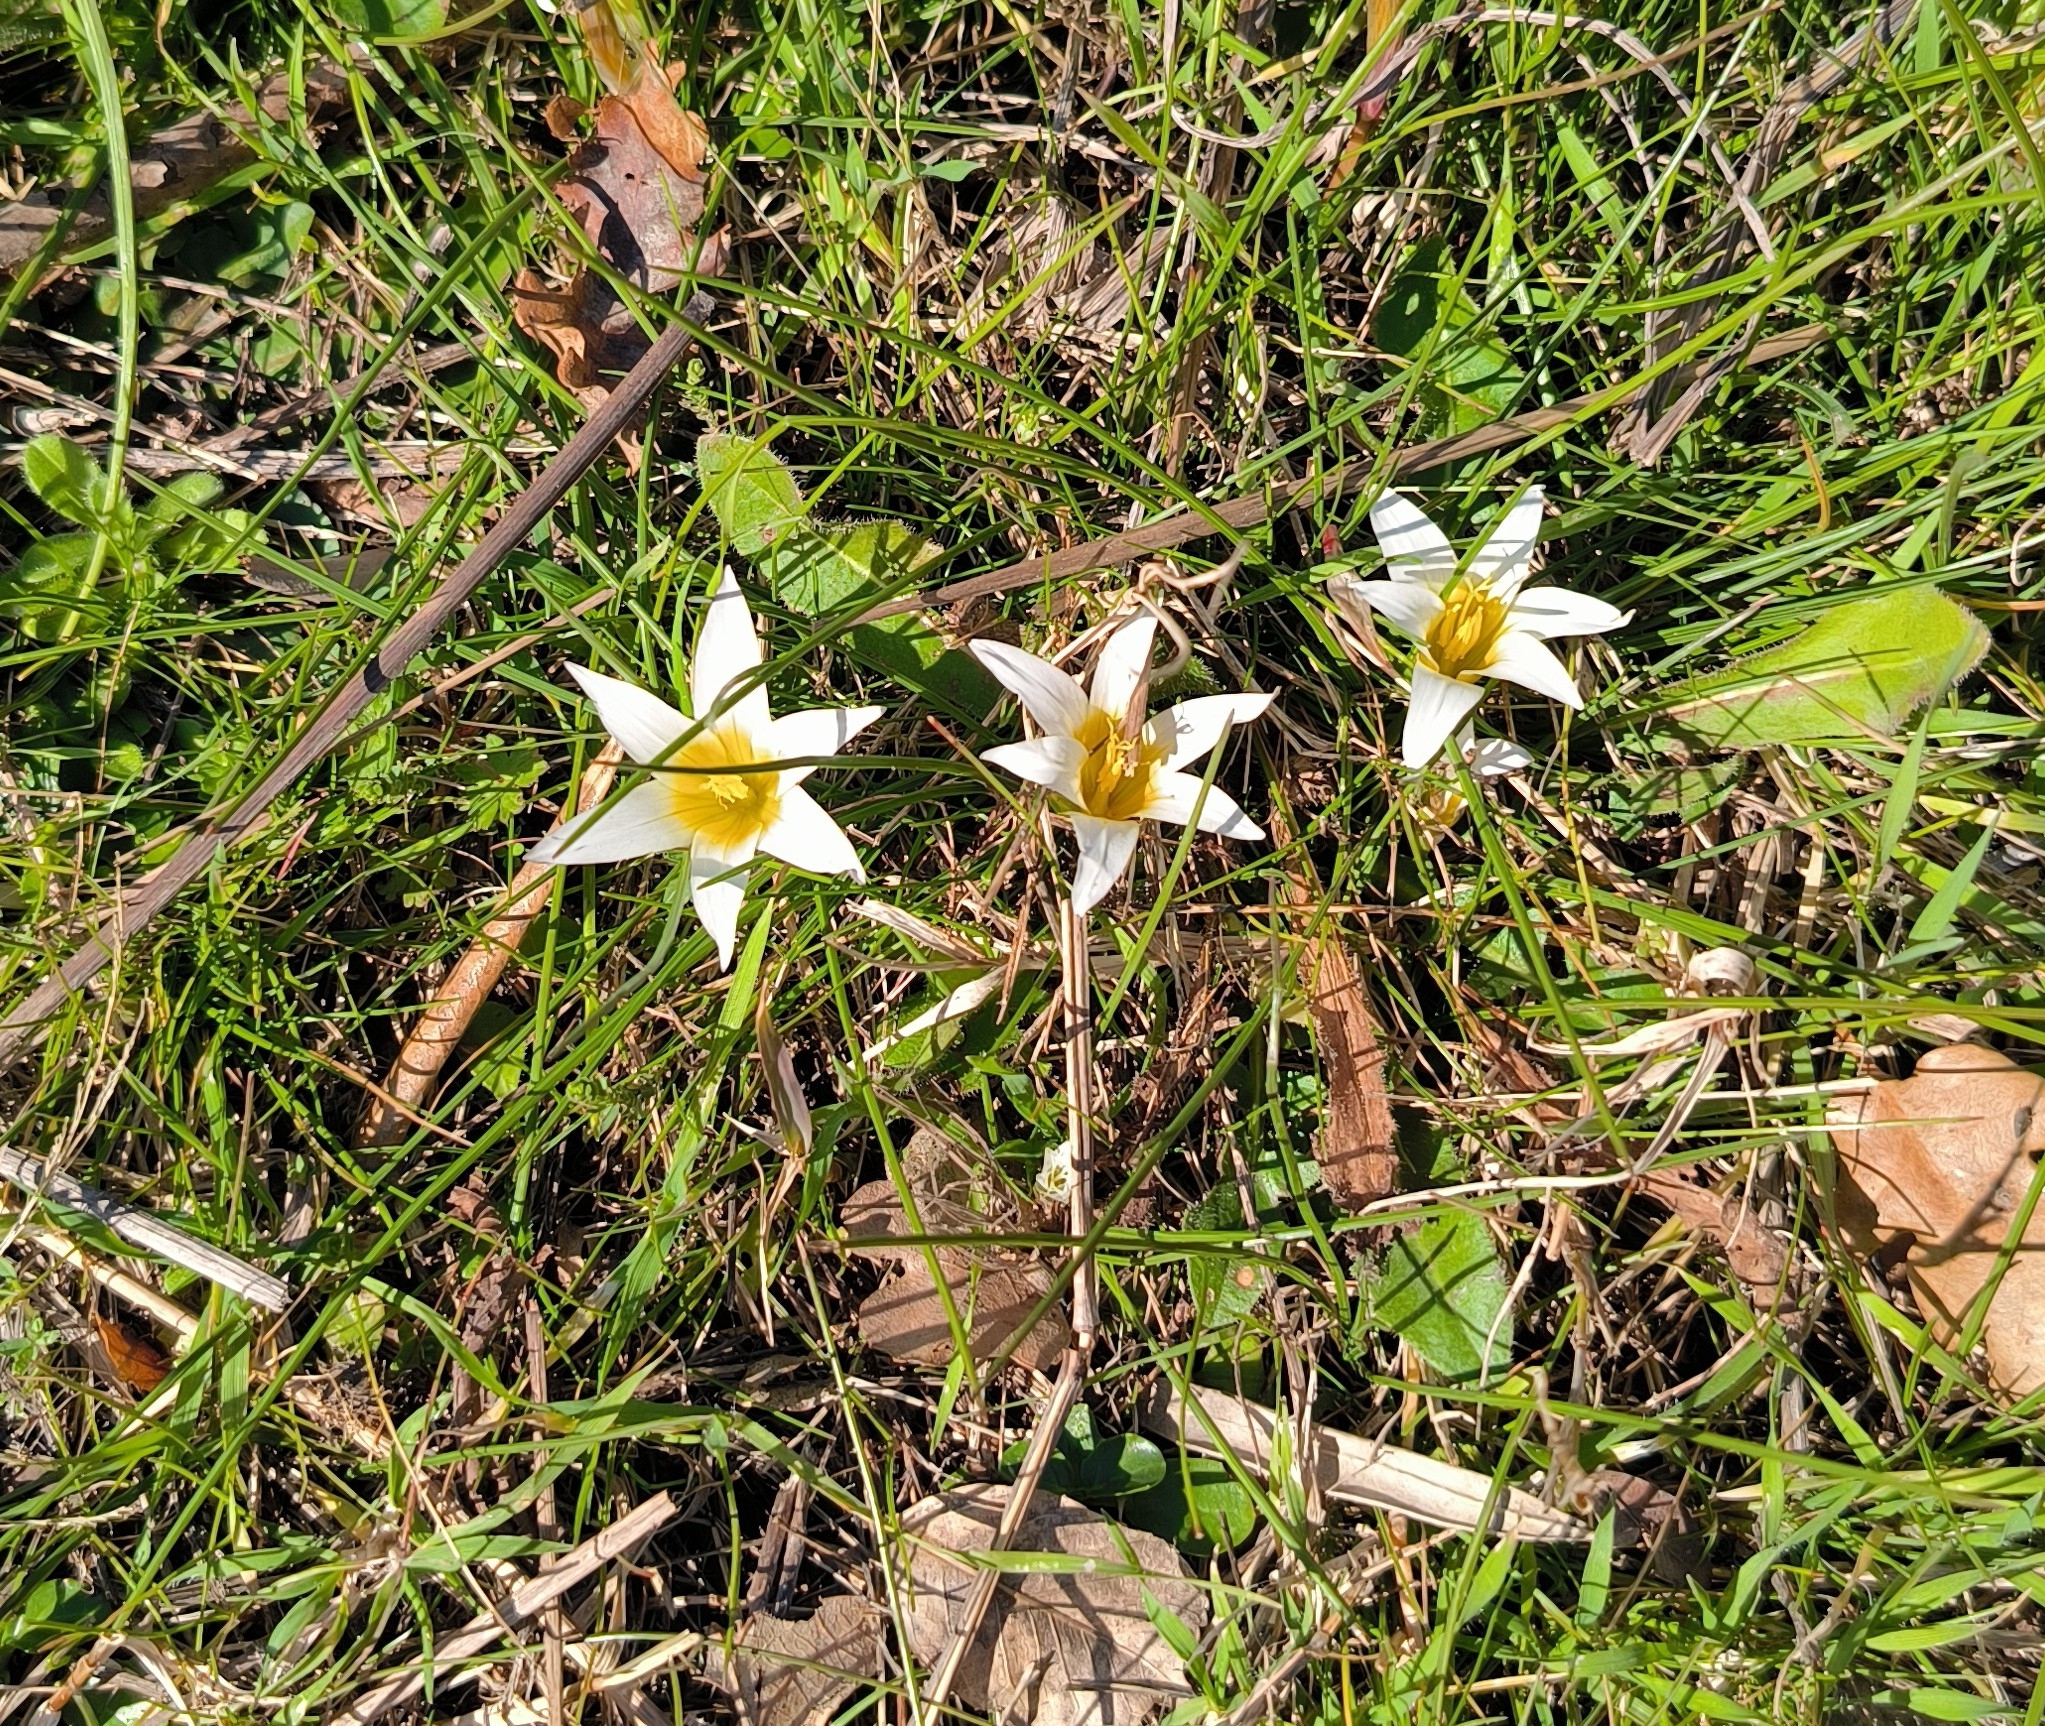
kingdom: Plantae
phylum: Tracheophyta
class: Liliopsida
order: Asparagales
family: Iridaceae
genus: Romulea
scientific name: Romulea bulbocodium
